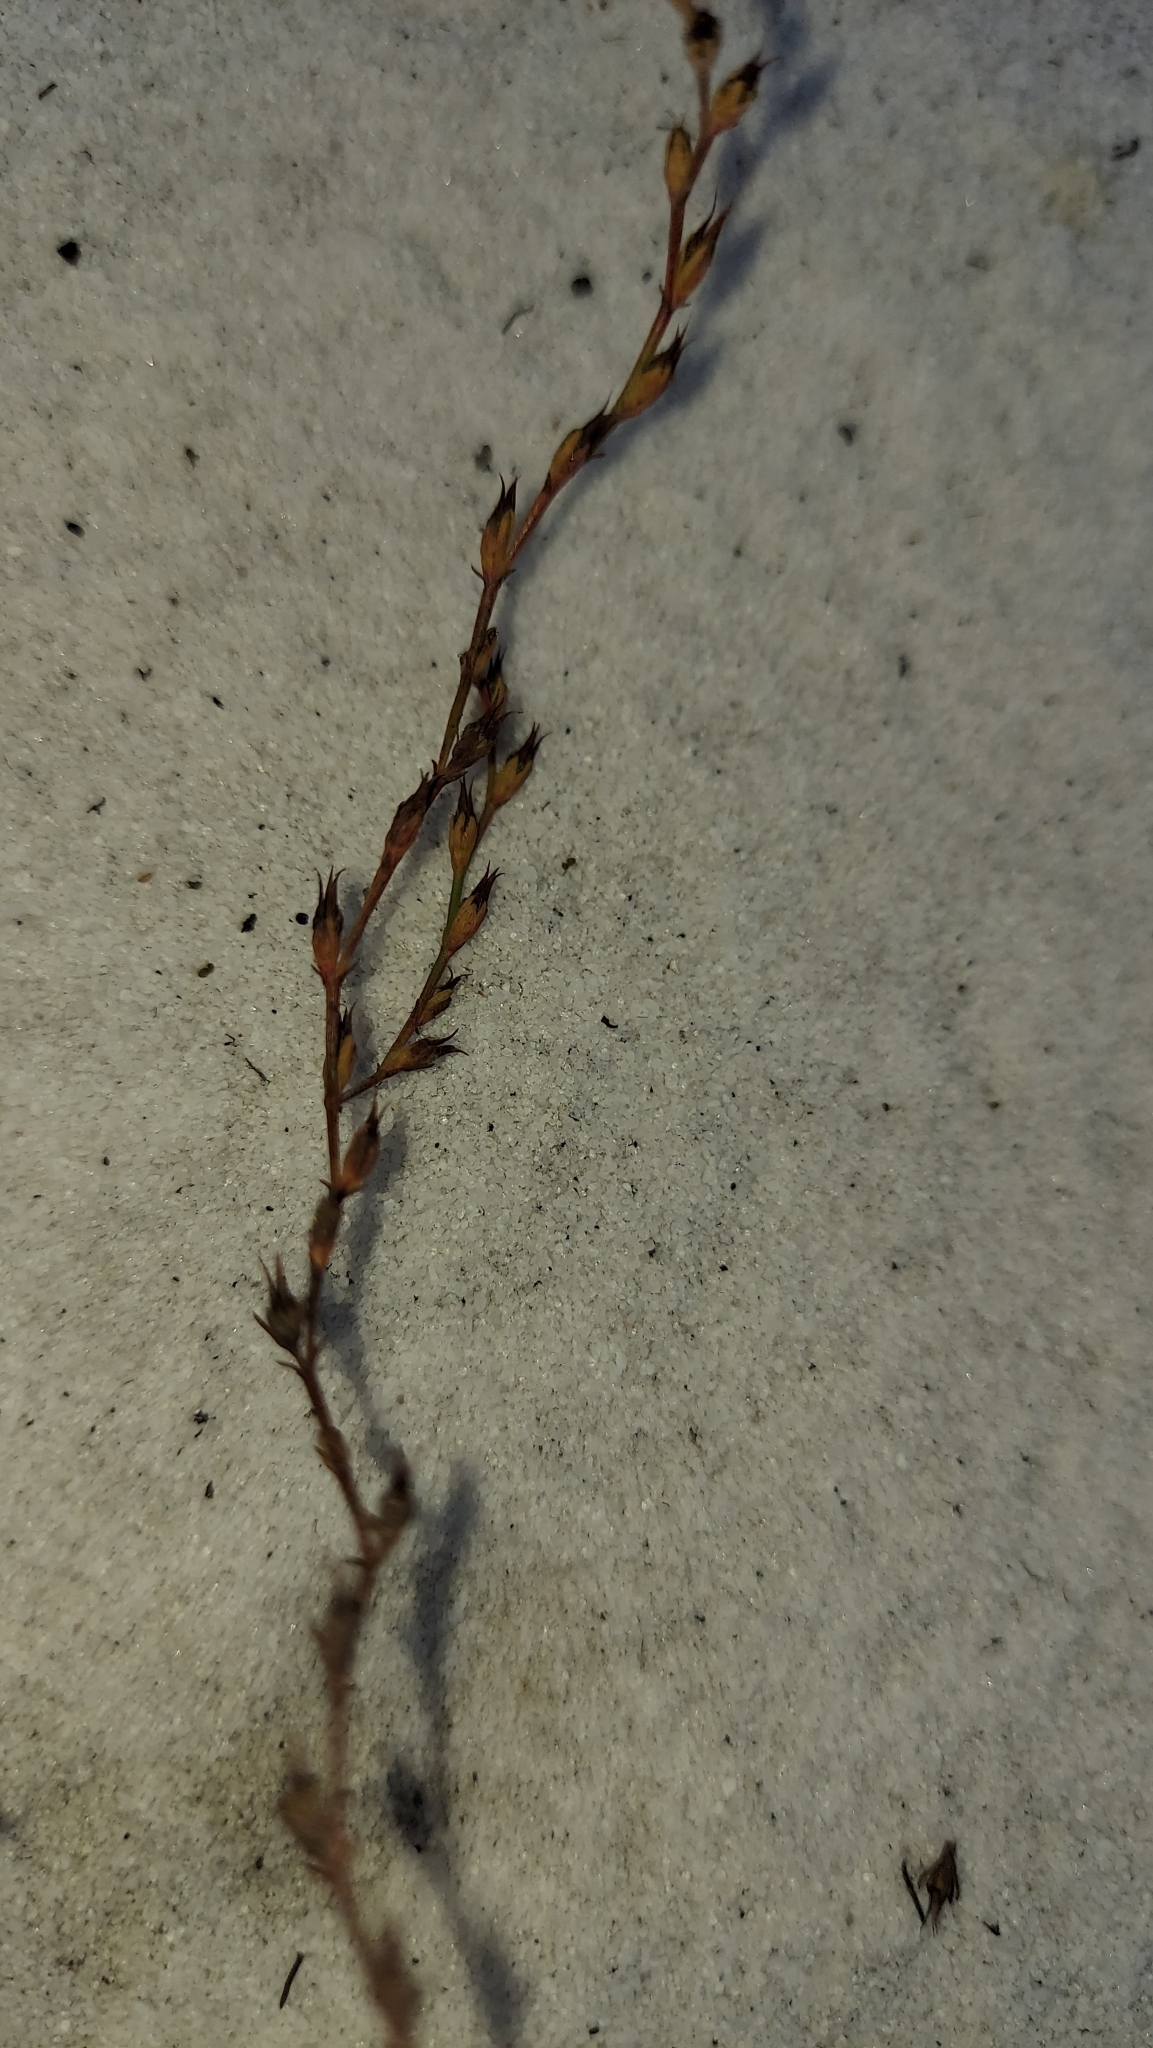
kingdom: Plantae
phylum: Tracheophyta
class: Magnoliopsida
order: Malpighiales
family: Hypericaceae
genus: Hypericum
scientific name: Hypericum cumulicola
